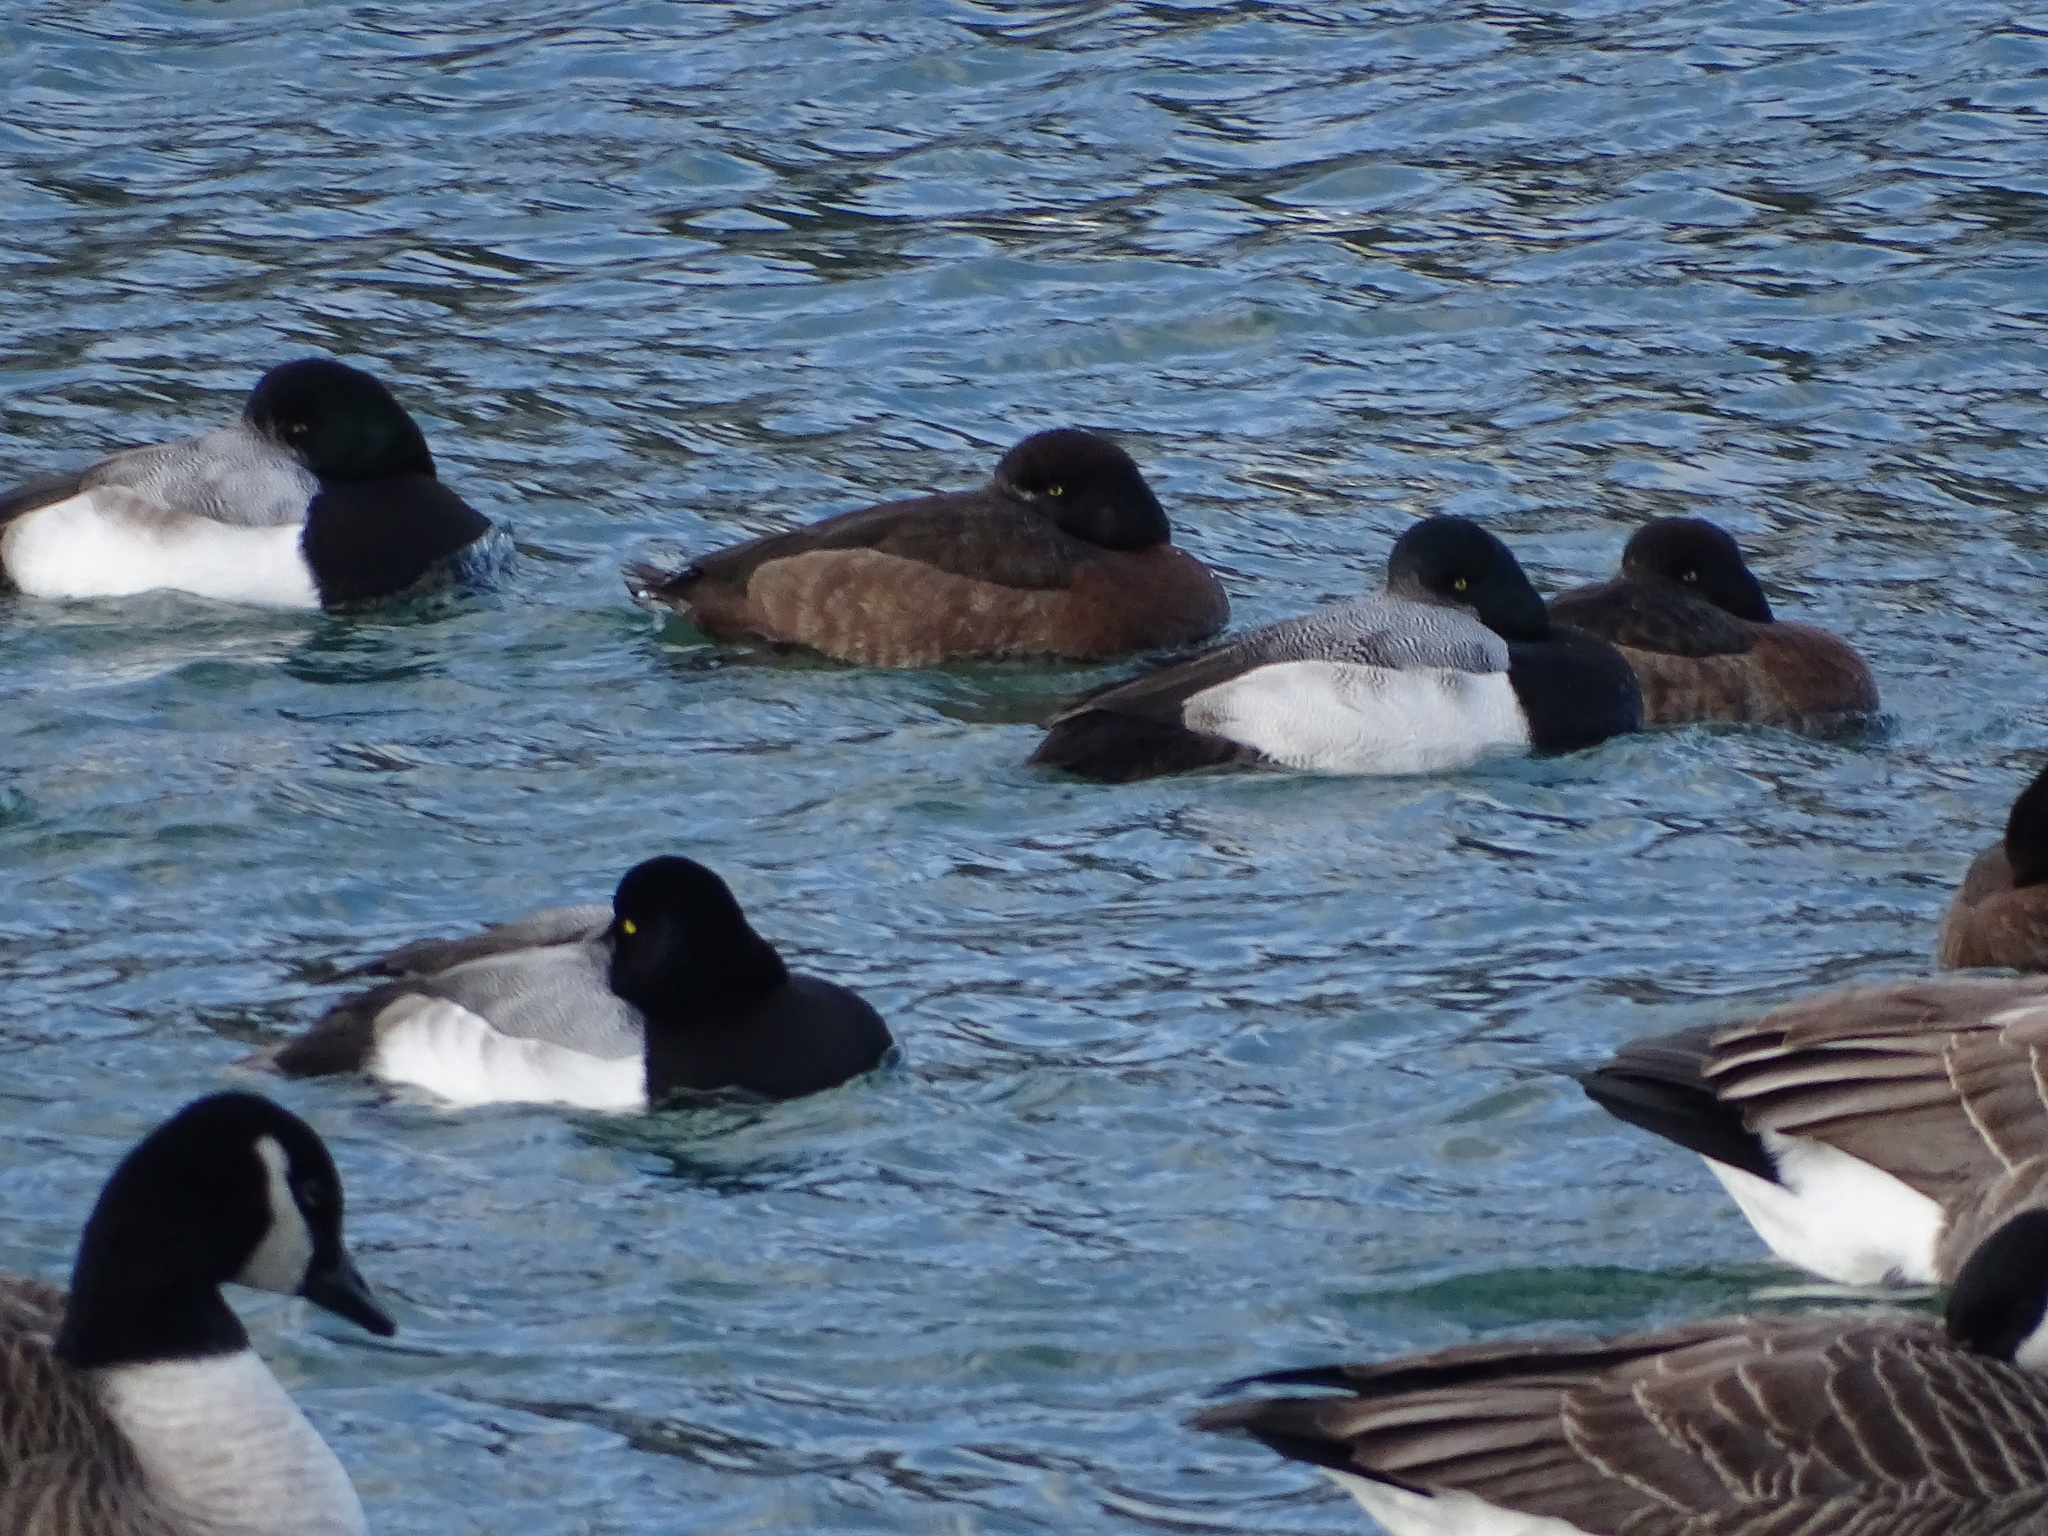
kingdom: Animalia
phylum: Chordata
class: Aves
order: Anseriformes
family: Anatidae
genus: Aythya
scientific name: Aythya marila
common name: Greater scaup
